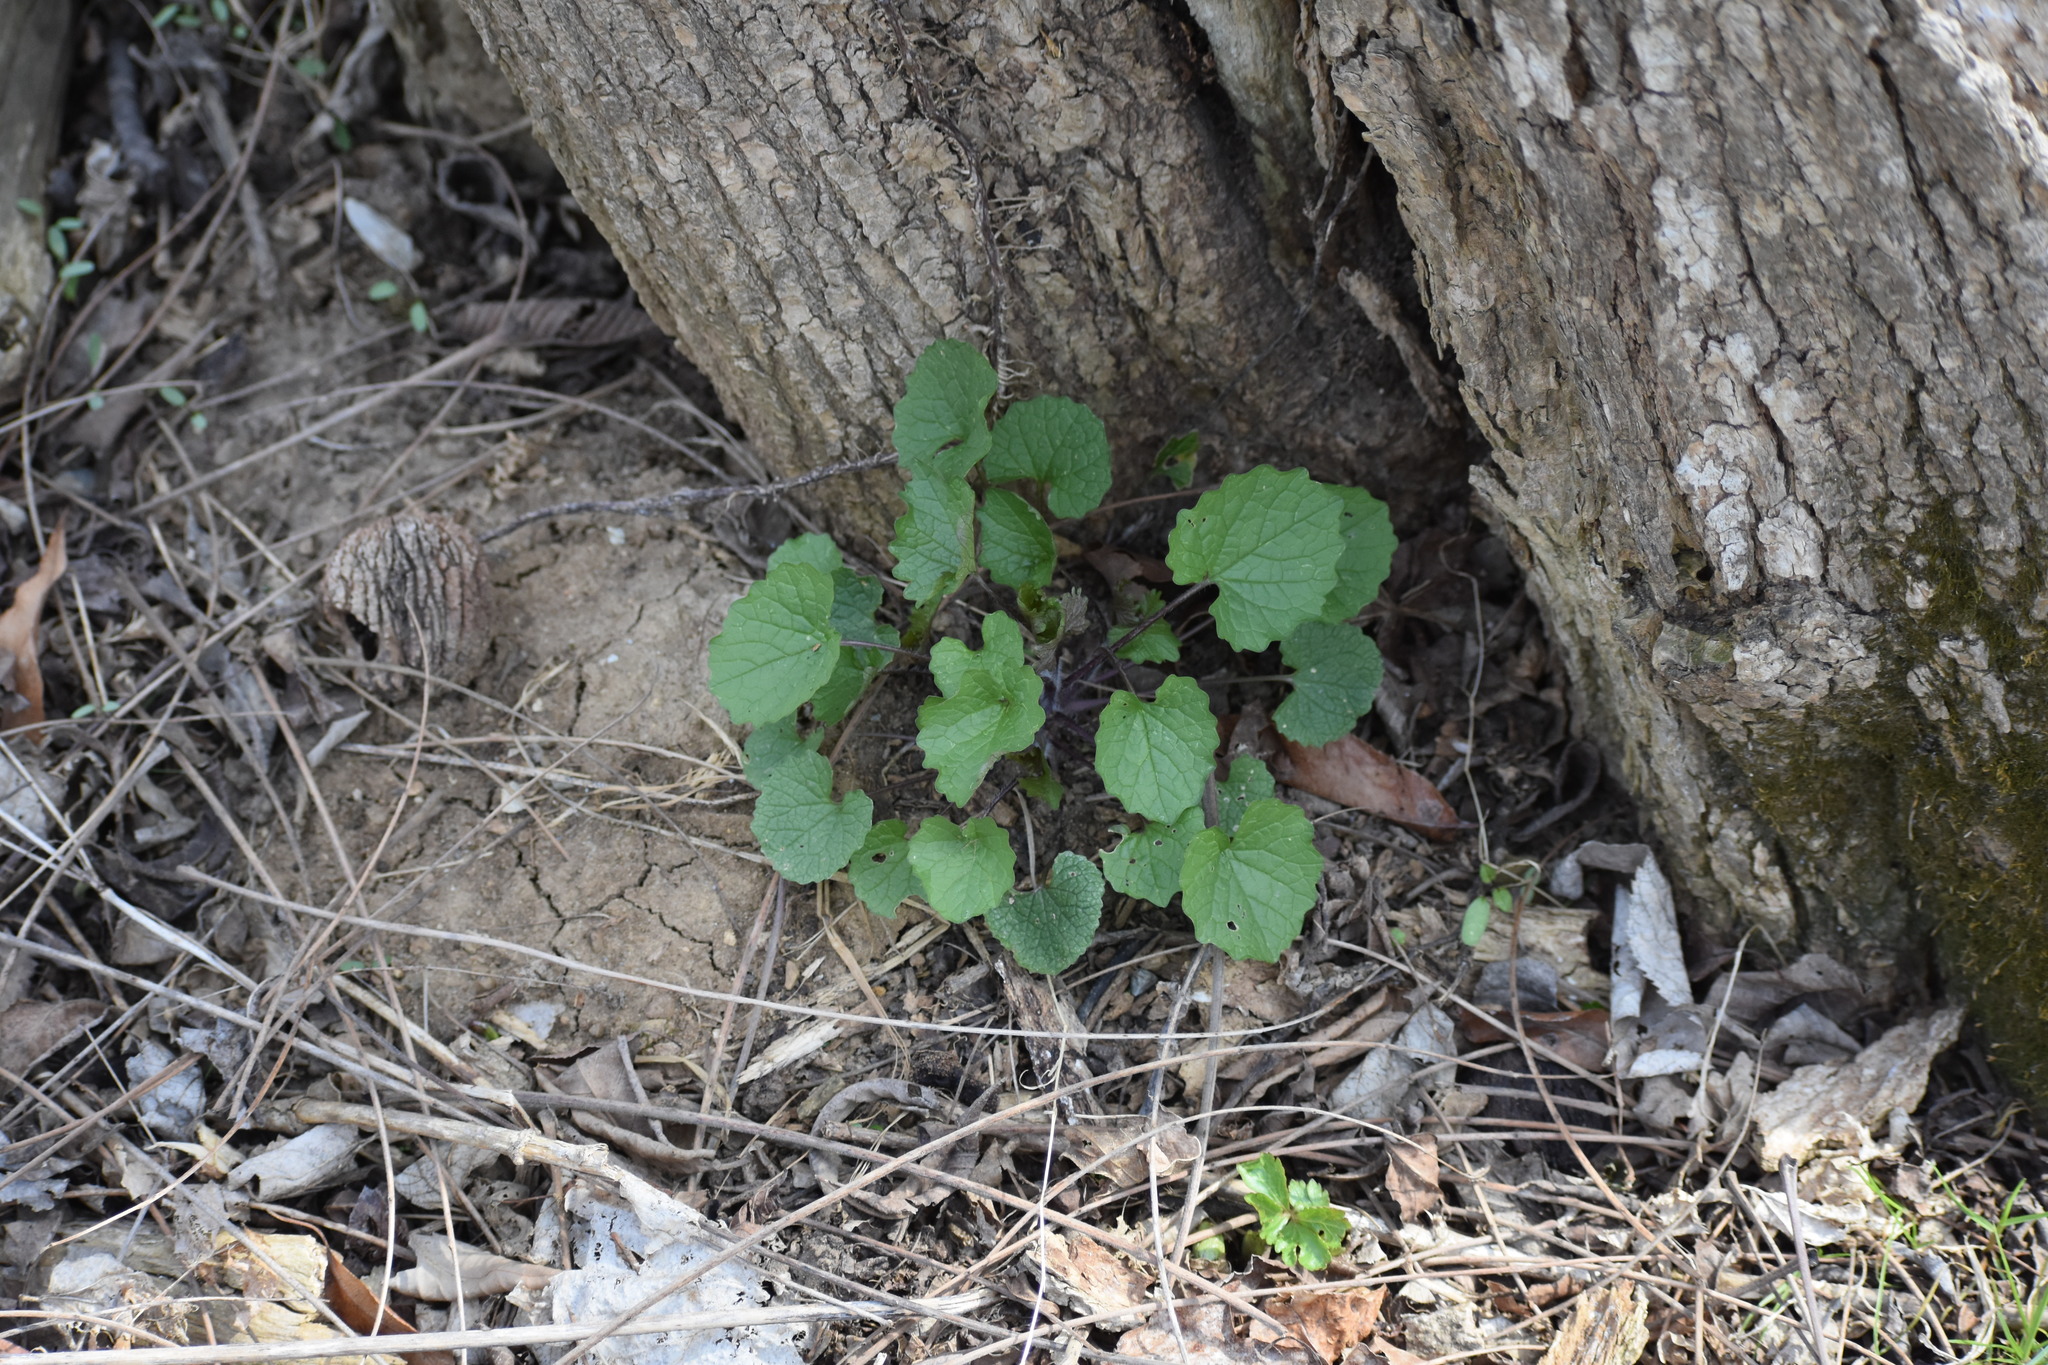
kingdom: Plantae
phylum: Tracheophyta
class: Magnoliopsida
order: Brassicales
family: Brassicaceae
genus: Alliaria
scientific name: Alliaria petiolata
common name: Garlic mustard
